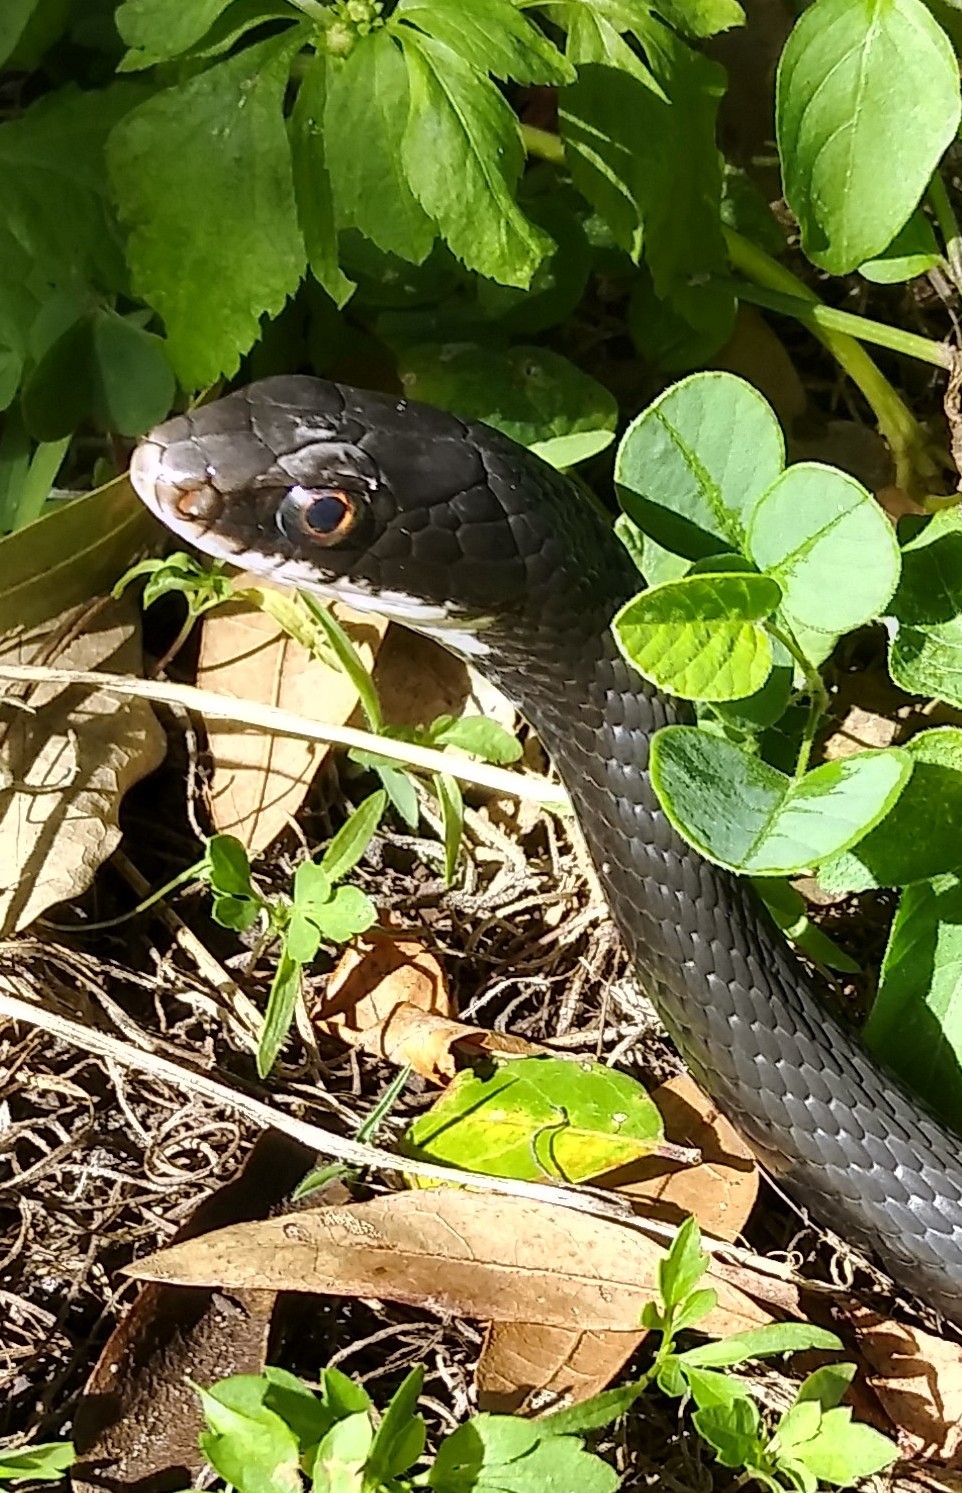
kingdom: Animalia
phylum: Chordata
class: Squamata
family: Colubridae
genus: Coluber
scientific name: Coluber constrictor
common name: Eastern racer
